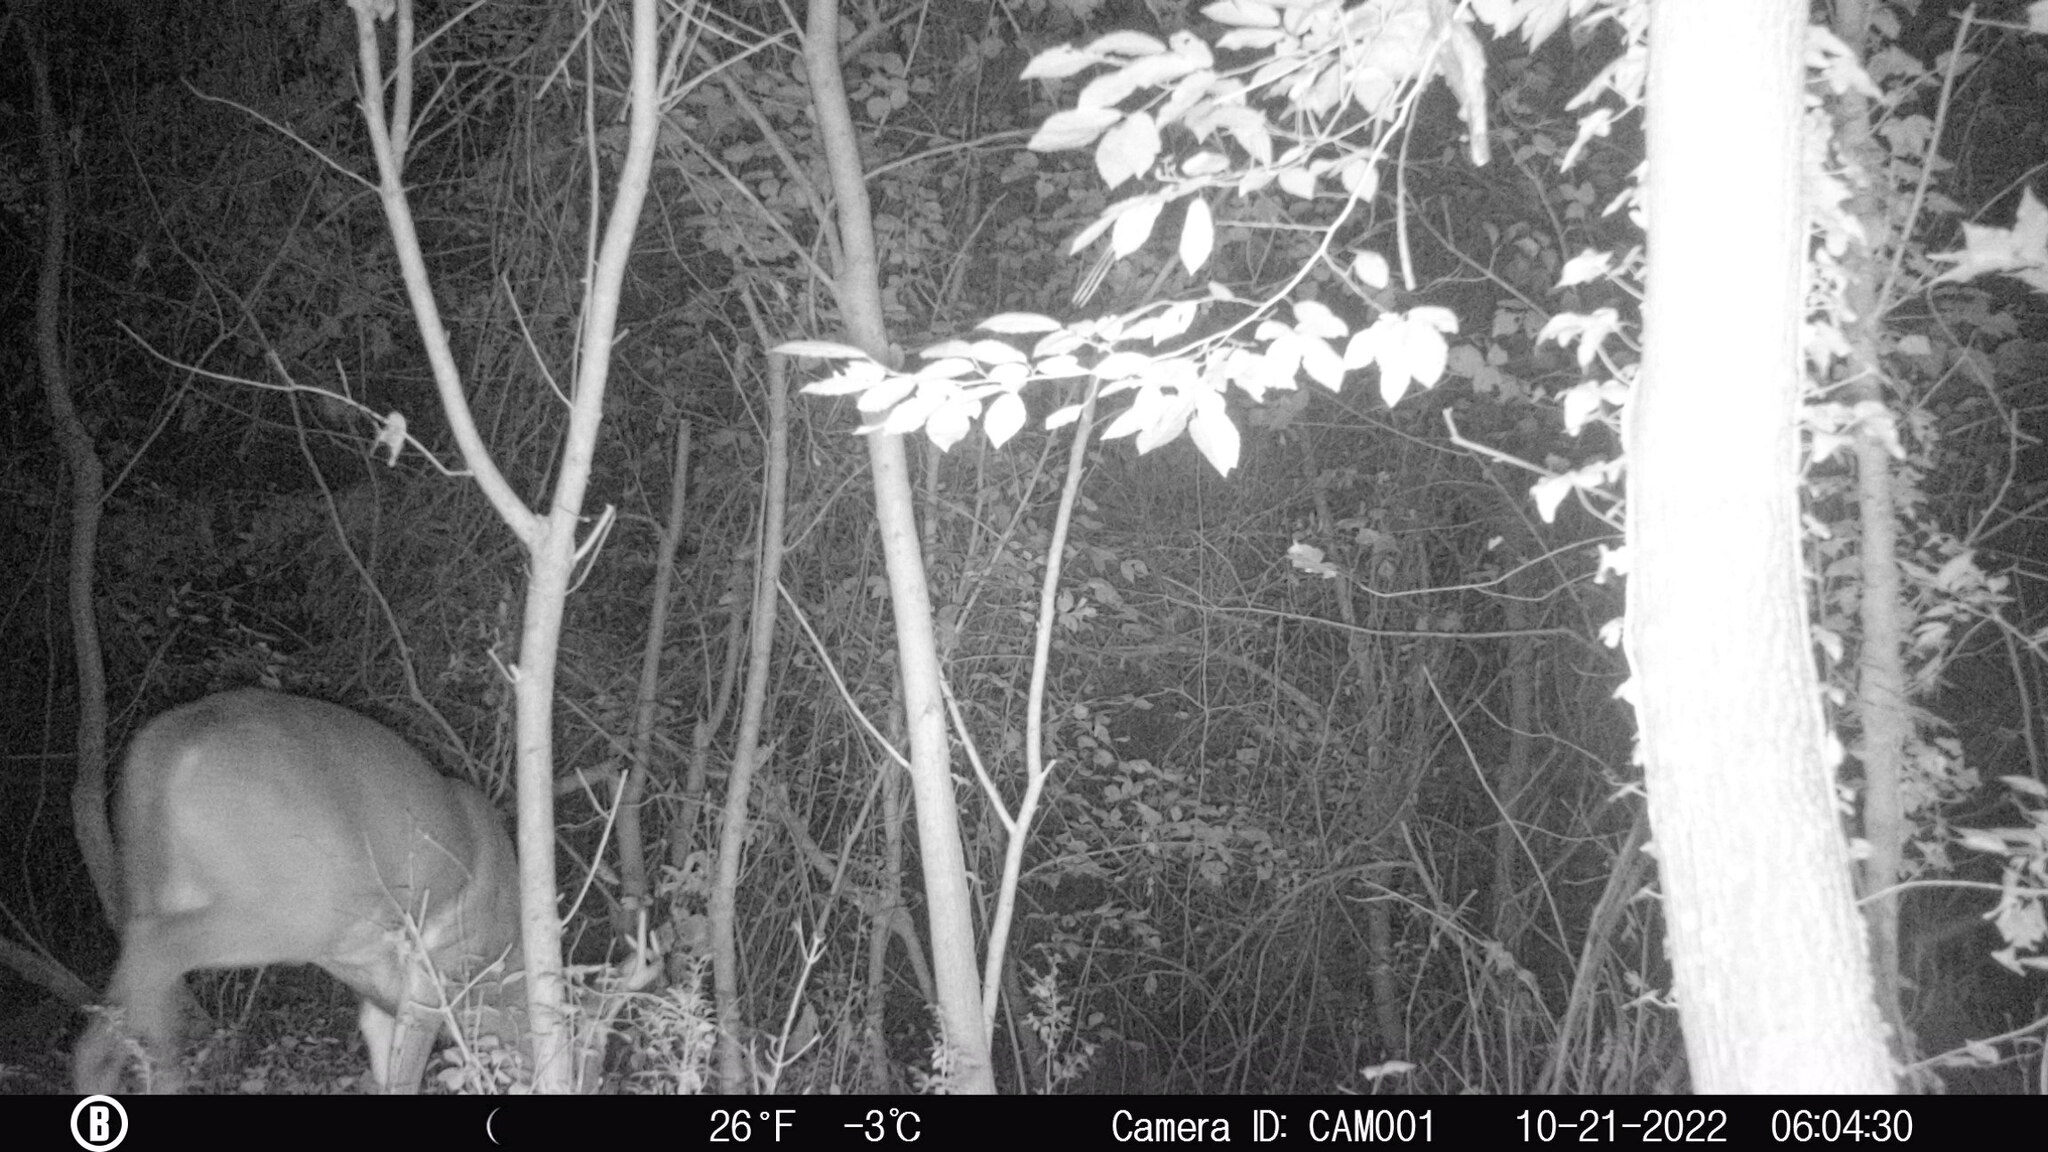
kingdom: Animalia
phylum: Chordata
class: Mammalia
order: Artiodactyla
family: Cervidae
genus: Odocoileus
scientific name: Odocoileus virginianus
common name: White-tailed deer
